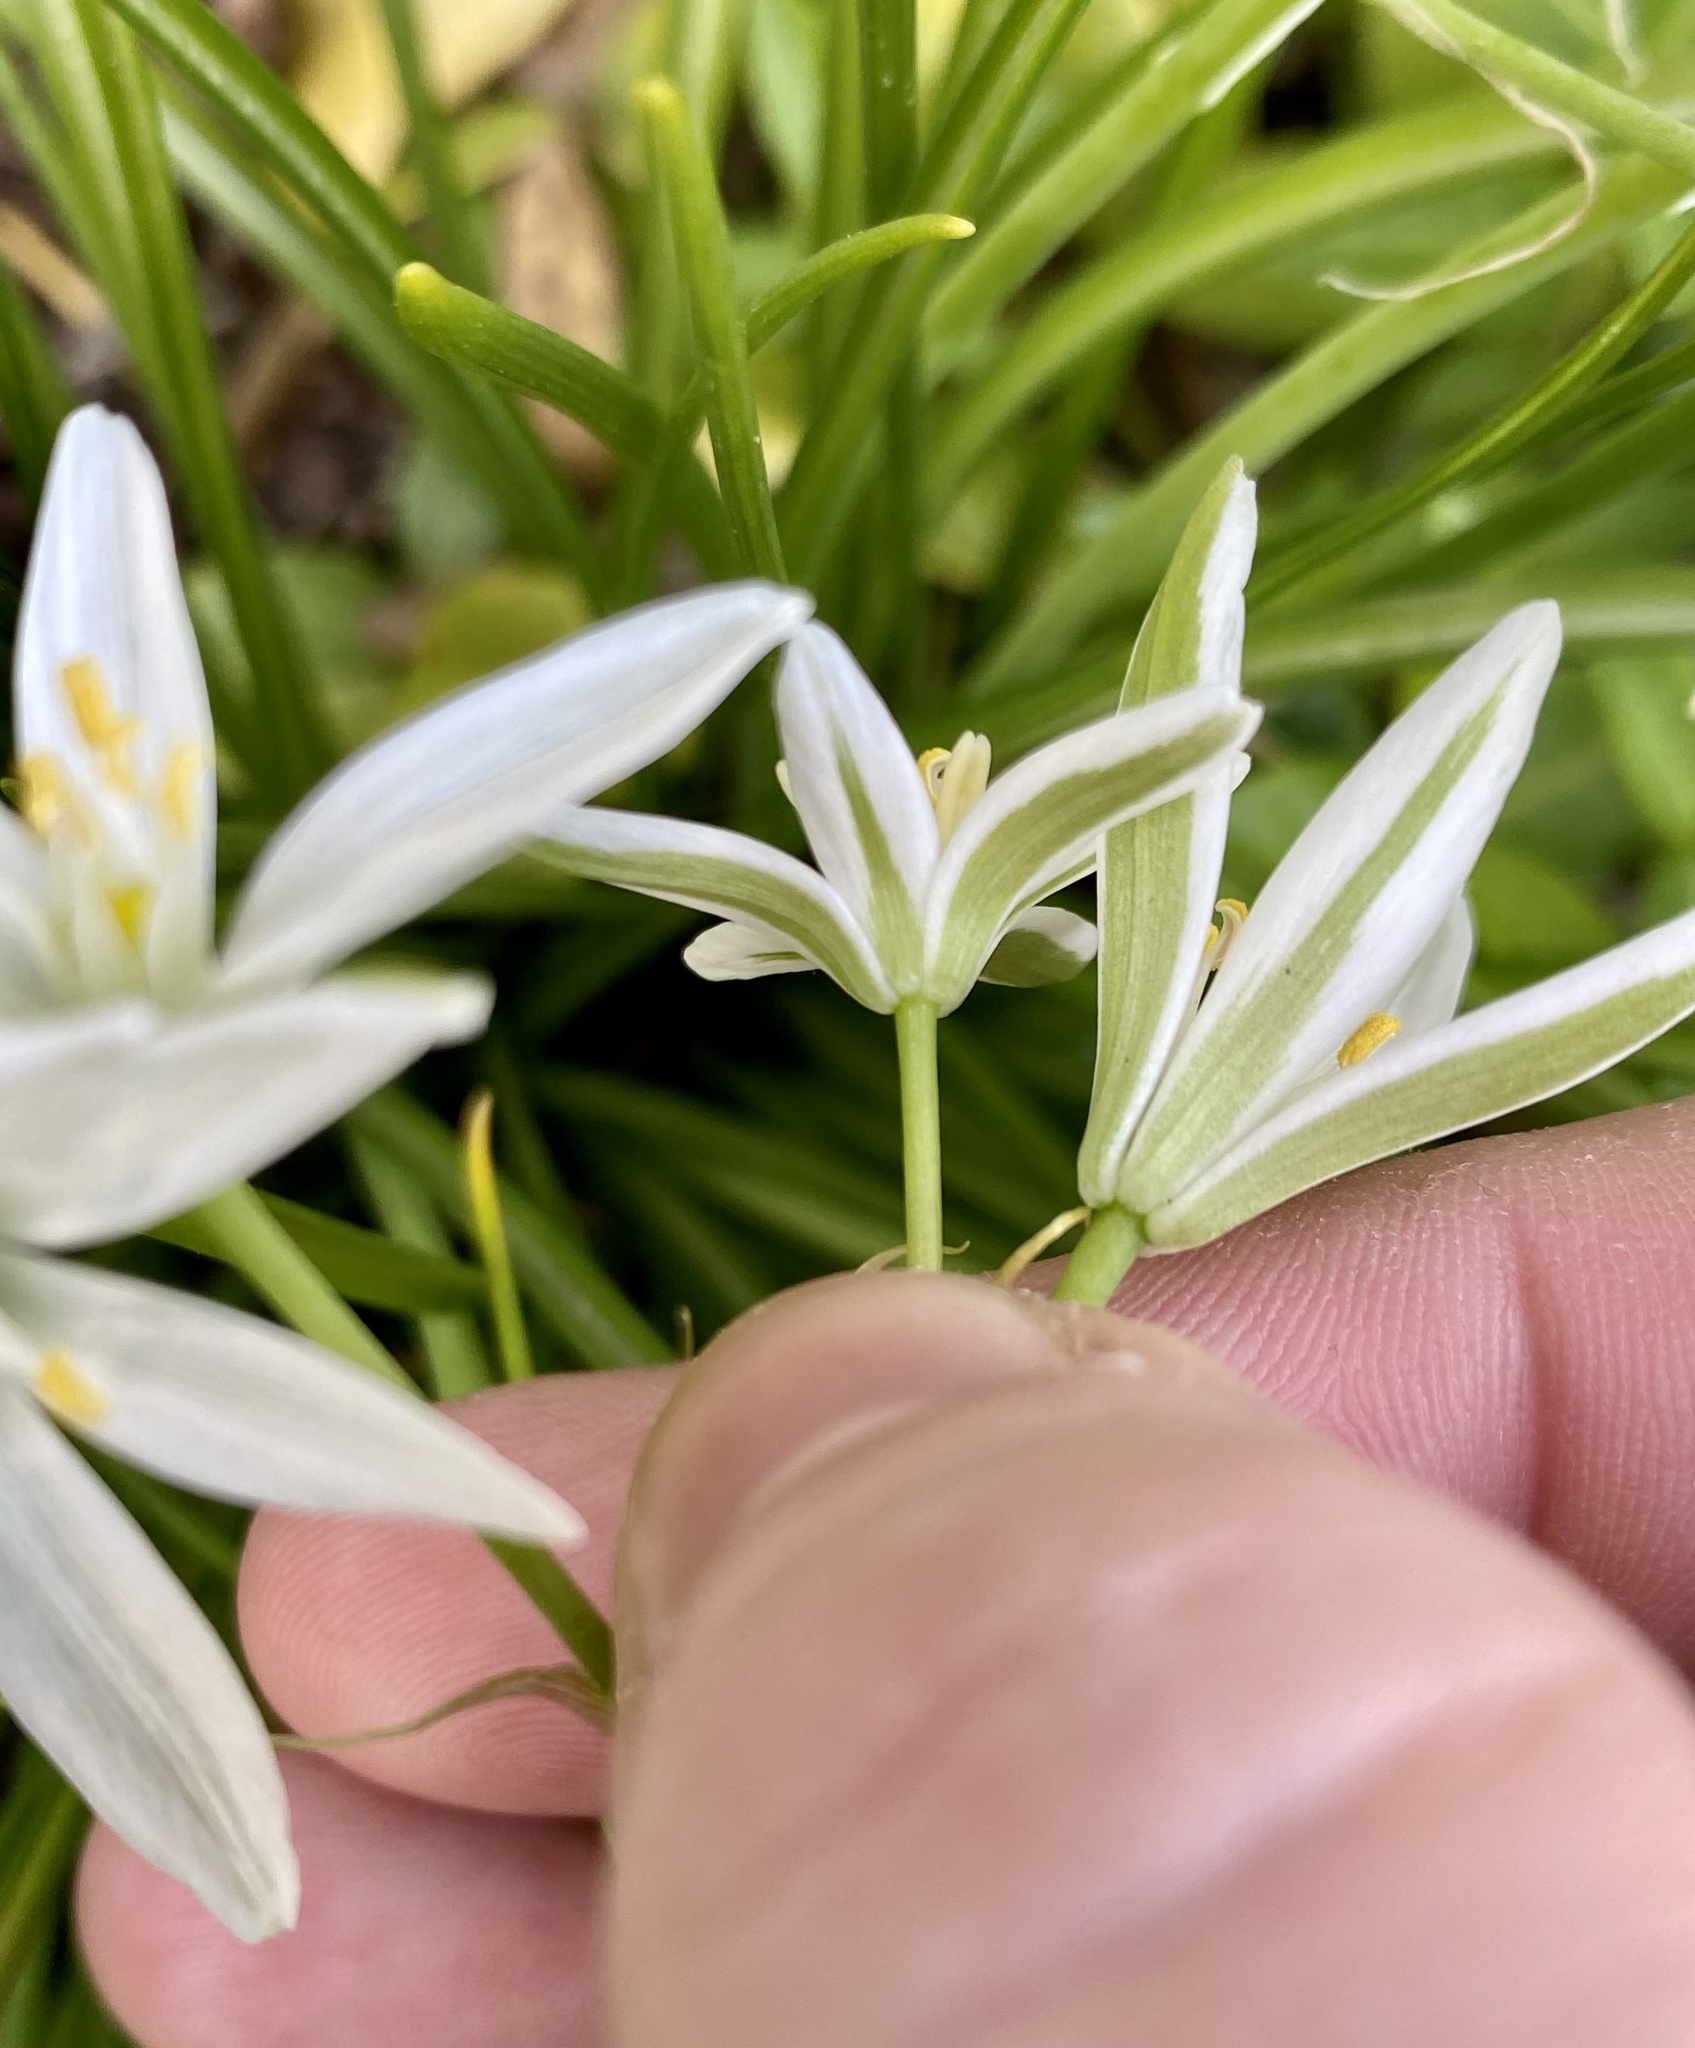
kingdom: Plantae
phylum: Tracheophyta
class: Liliopsida
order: Asparagales
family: Asparagaceae
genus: Ornithogalum
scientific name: Ornithogalum umbellatum
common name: Garden star-of-bethlehem
